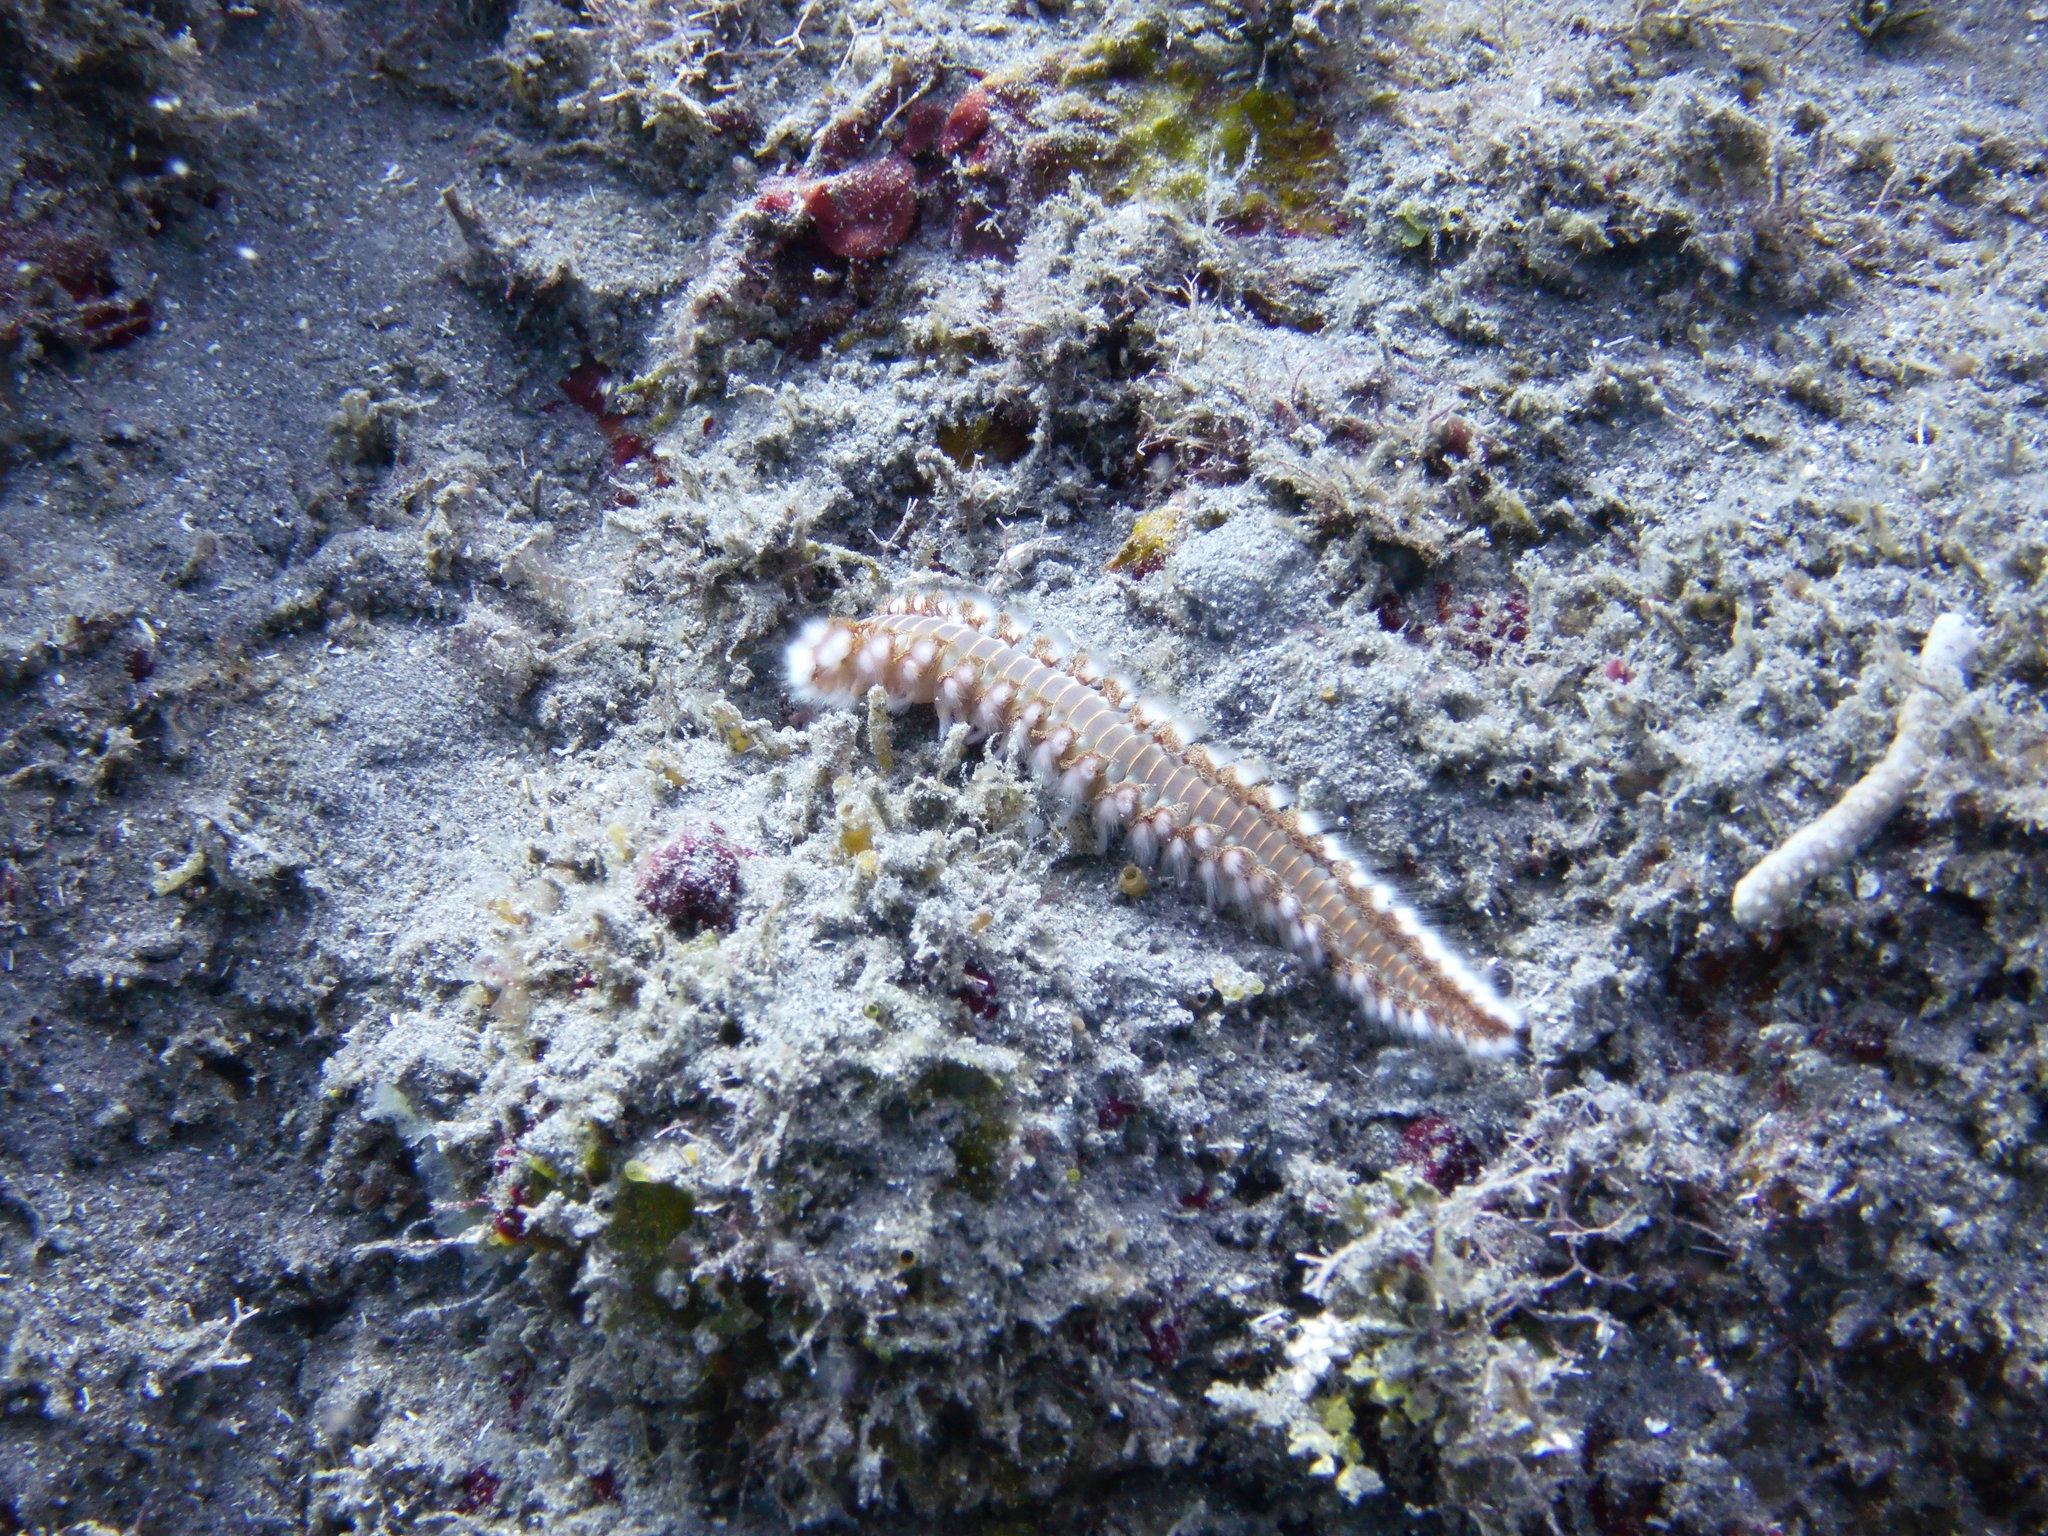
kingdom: Animalia
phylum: Annelida
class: Polychaeta
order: Amphinomida
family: Amphinomidae
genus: Hermodice
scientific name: Hermodice carunculata
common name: Bearded fireworm
